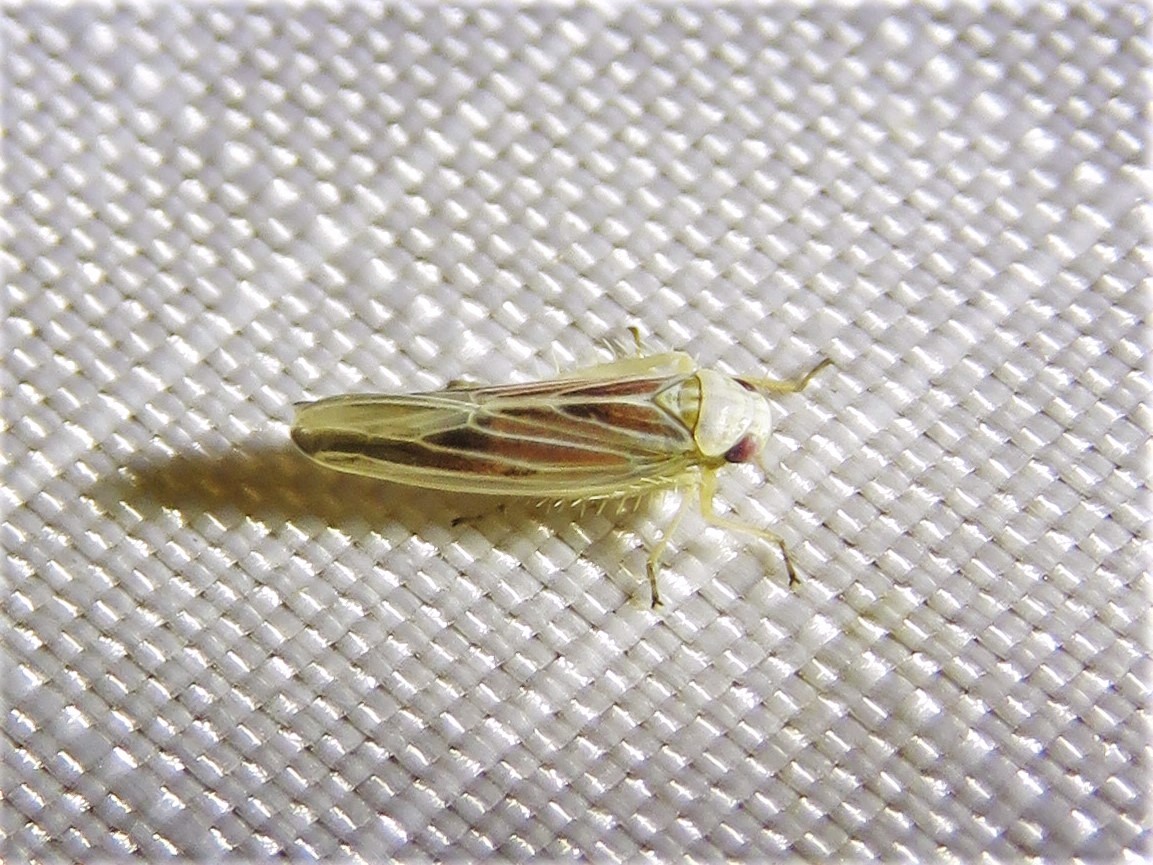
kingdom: Animalia
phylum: Arthropoda
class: Insecta
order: Hemiptera
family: Cicadellidae
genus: Balclutha
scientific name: Balclutha rubrostriata
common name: Red-streaked leafhopper
